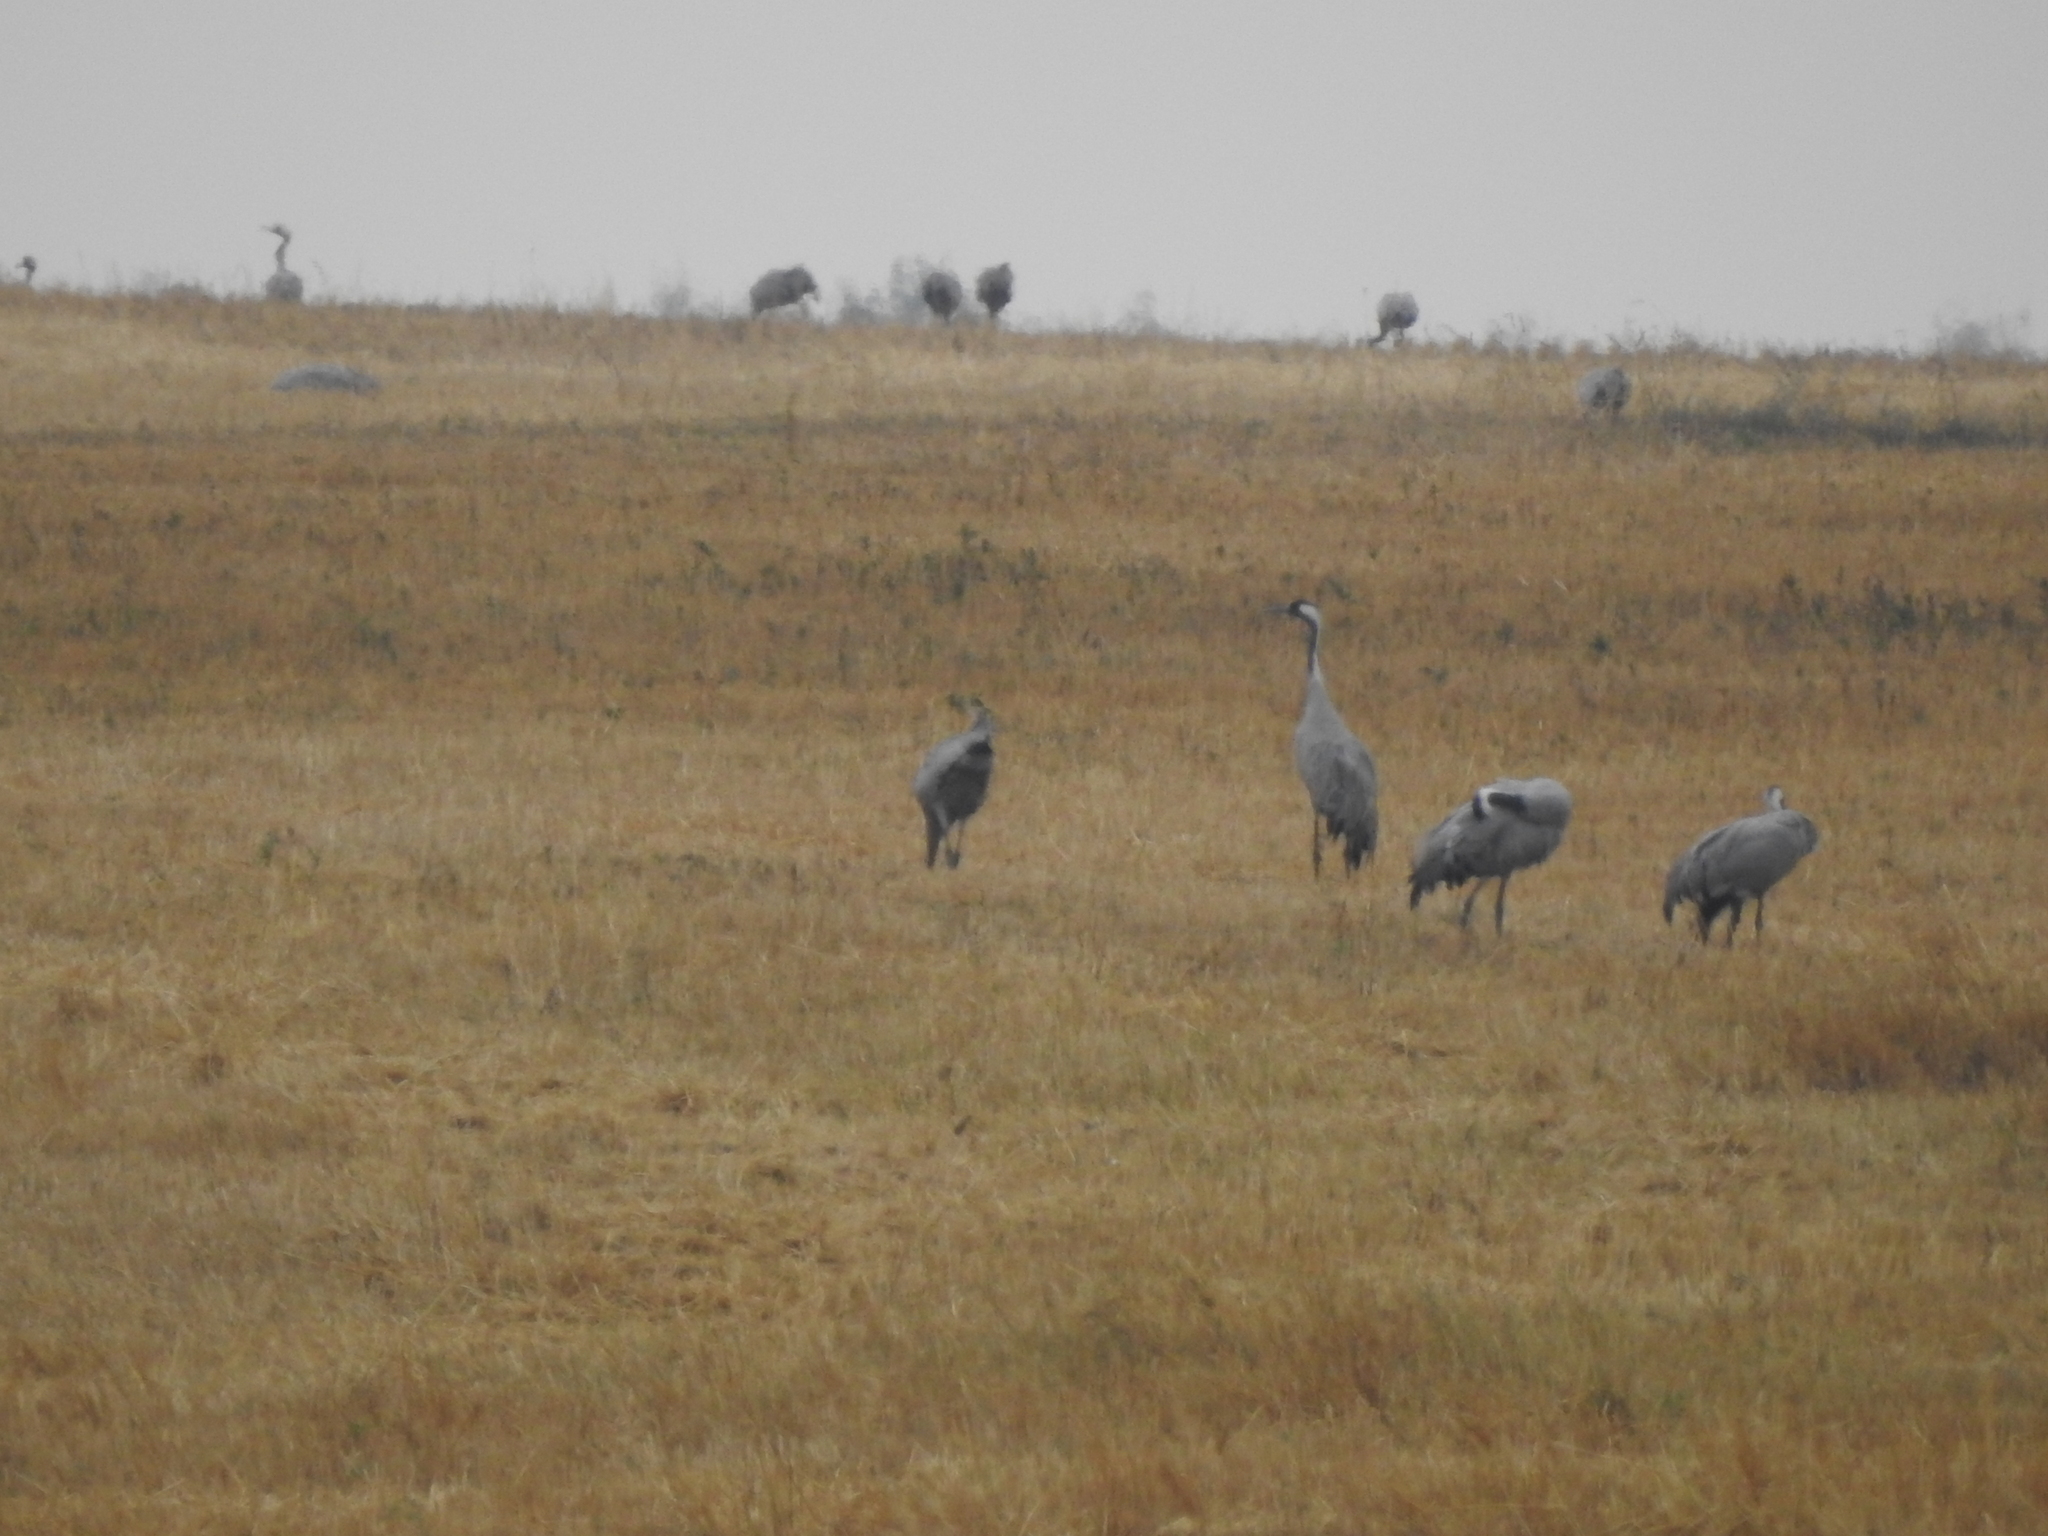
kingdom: Animalia
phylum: Chordata
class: Aves
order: Gruiformes
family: Gruidae
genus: Grus
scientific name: Grus grus
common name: Common crane
